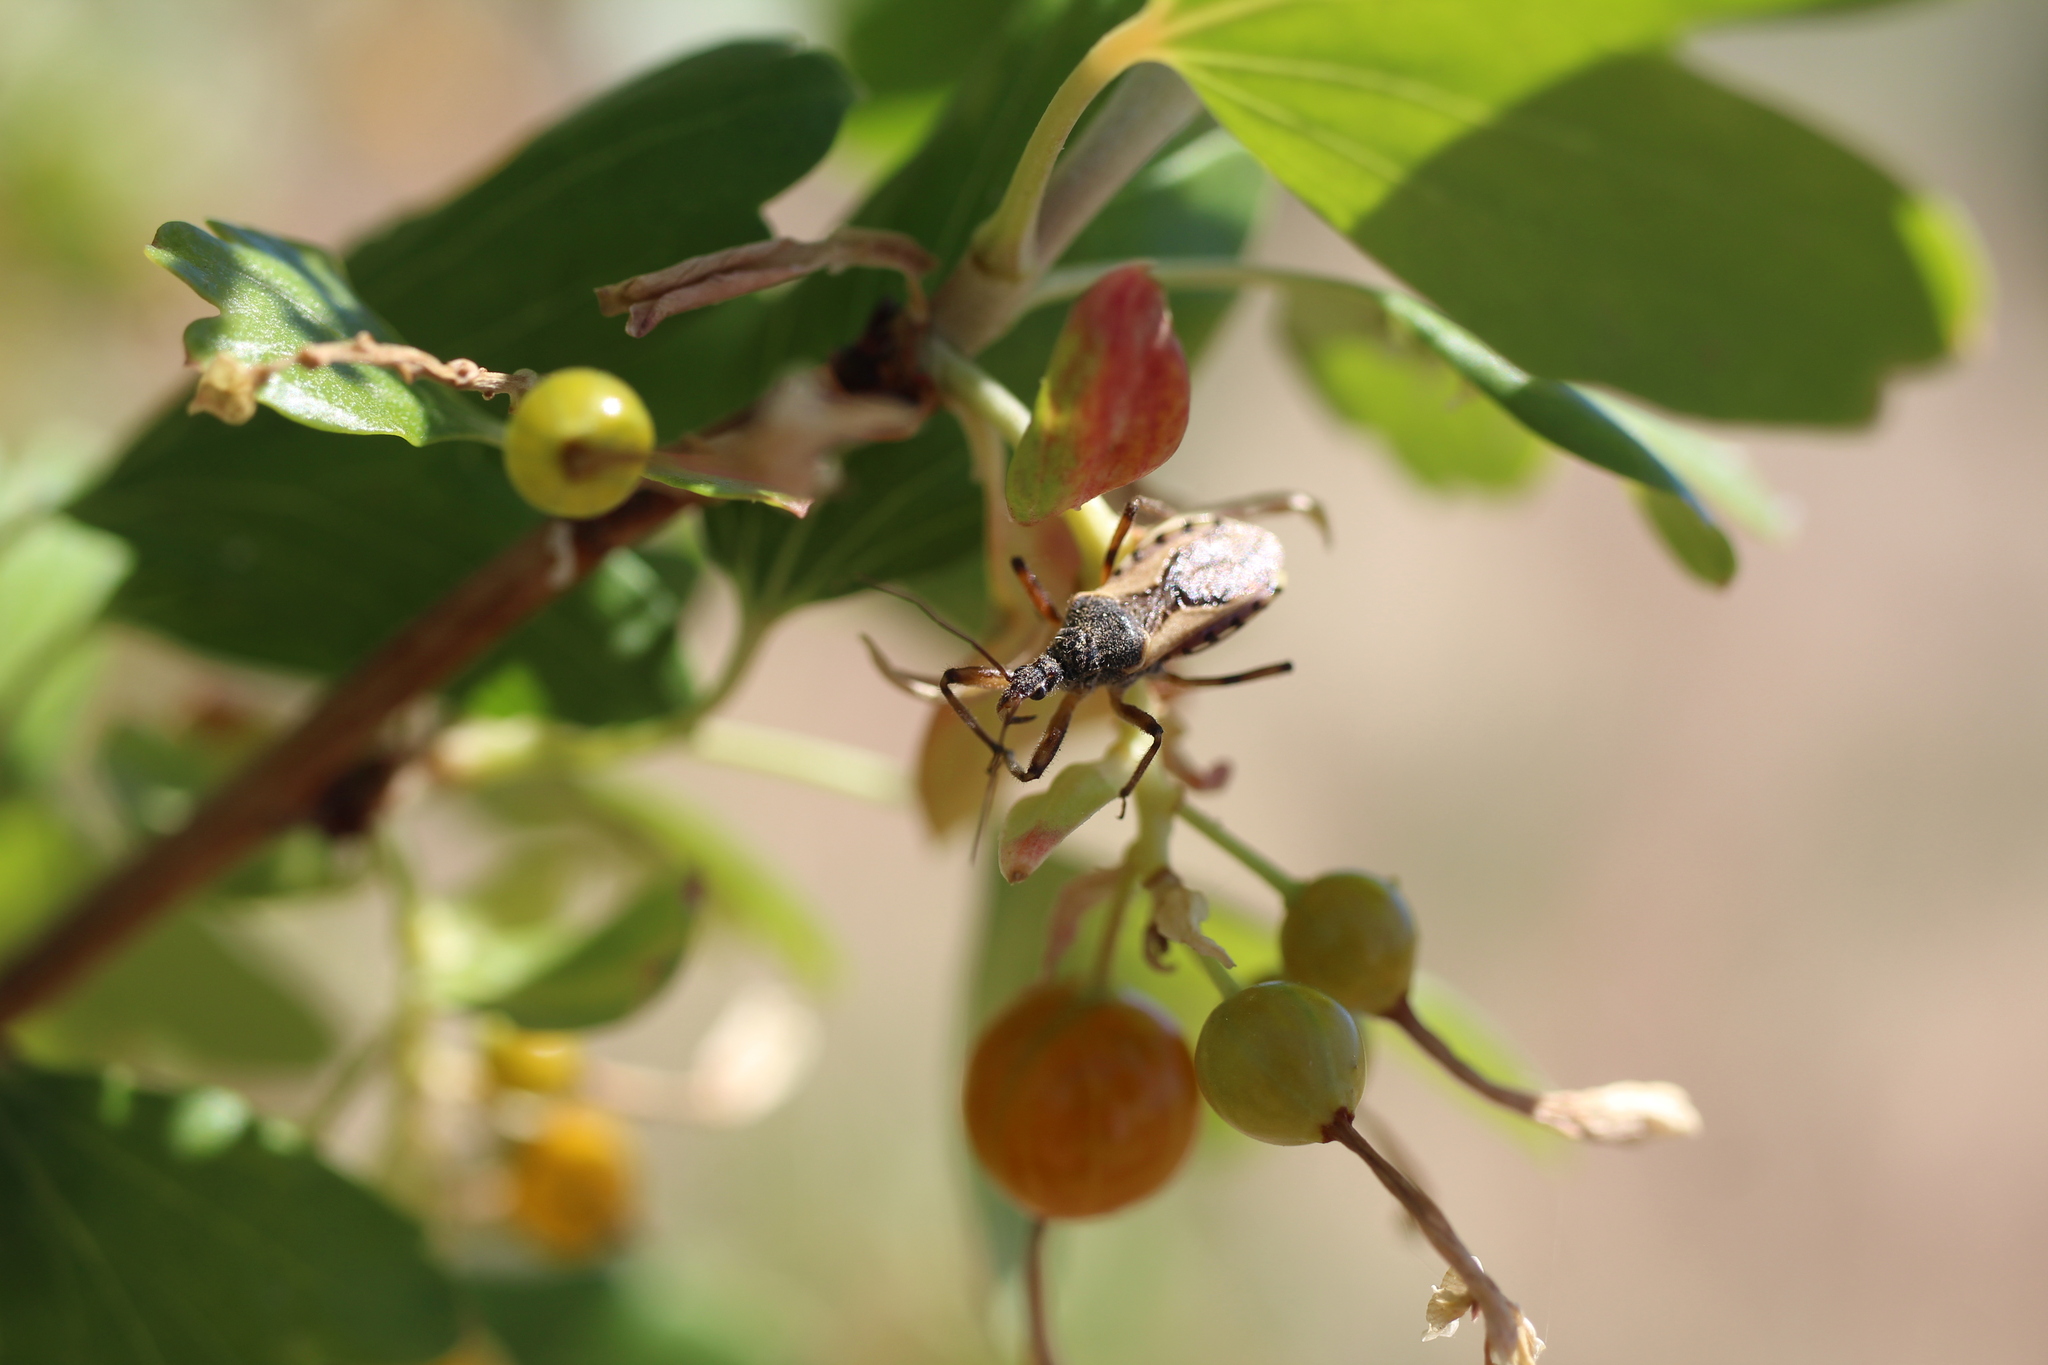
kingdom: Animalia
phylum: Arthropoda
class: Insecta
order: Hemiptera
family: Reduviidae
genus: Rhynocoris
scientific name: Rhynocoris ventralis
